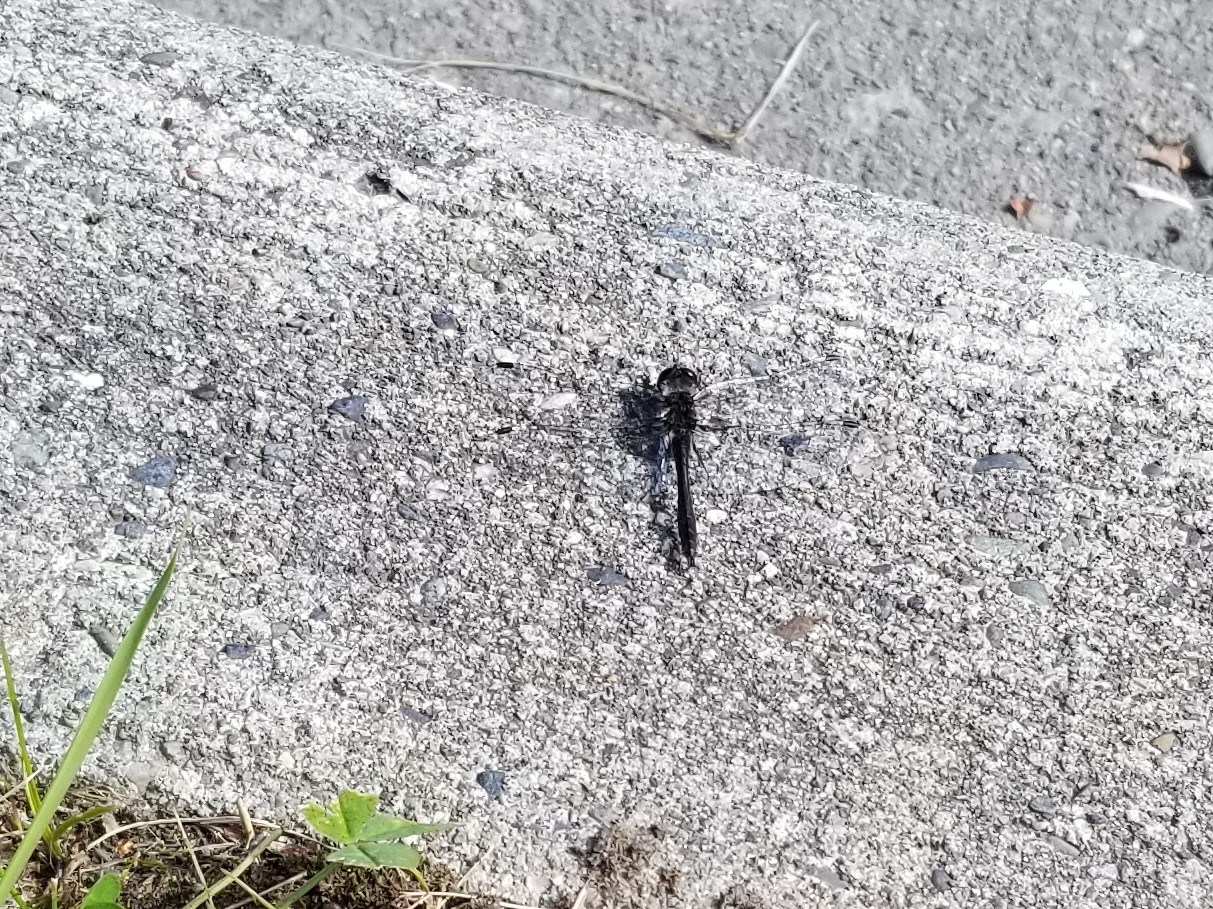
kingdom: Animalia
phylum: Arthropoda
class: Insecta
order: Odonata
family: Libellulidae
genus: Sympetrum
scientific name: Sympetrum danae
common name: Black darter
